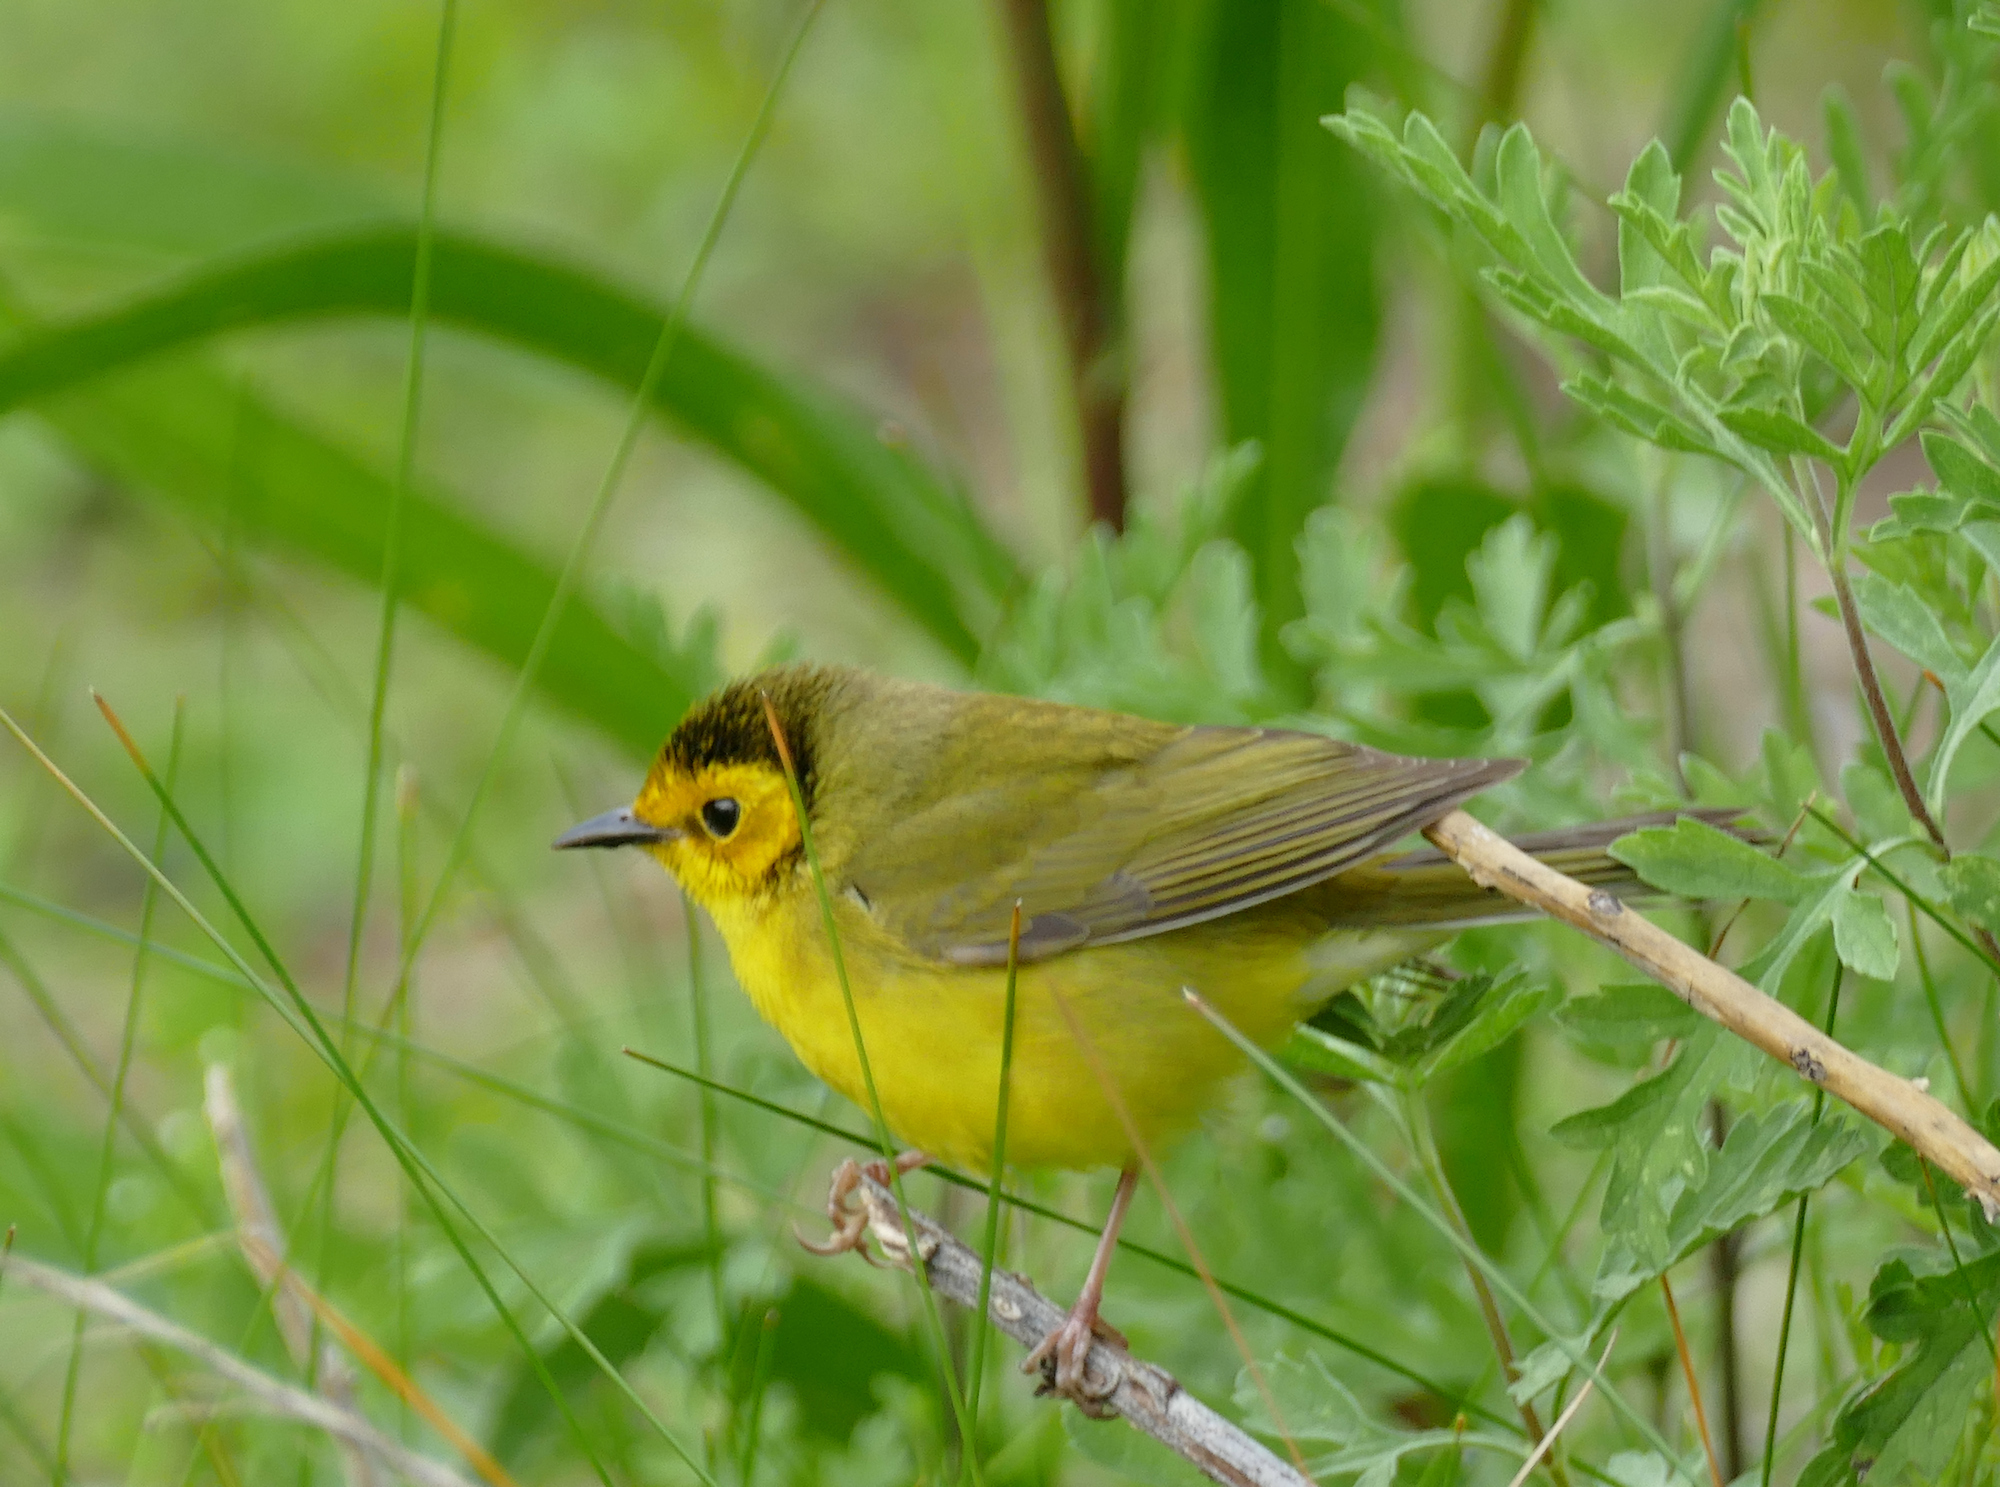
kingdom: Animalia
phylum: Chordata
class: Aves
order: Passeriformes
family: Parulidae
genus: Setophaga
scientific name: Setophaga citrina
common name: Hooded warbler
